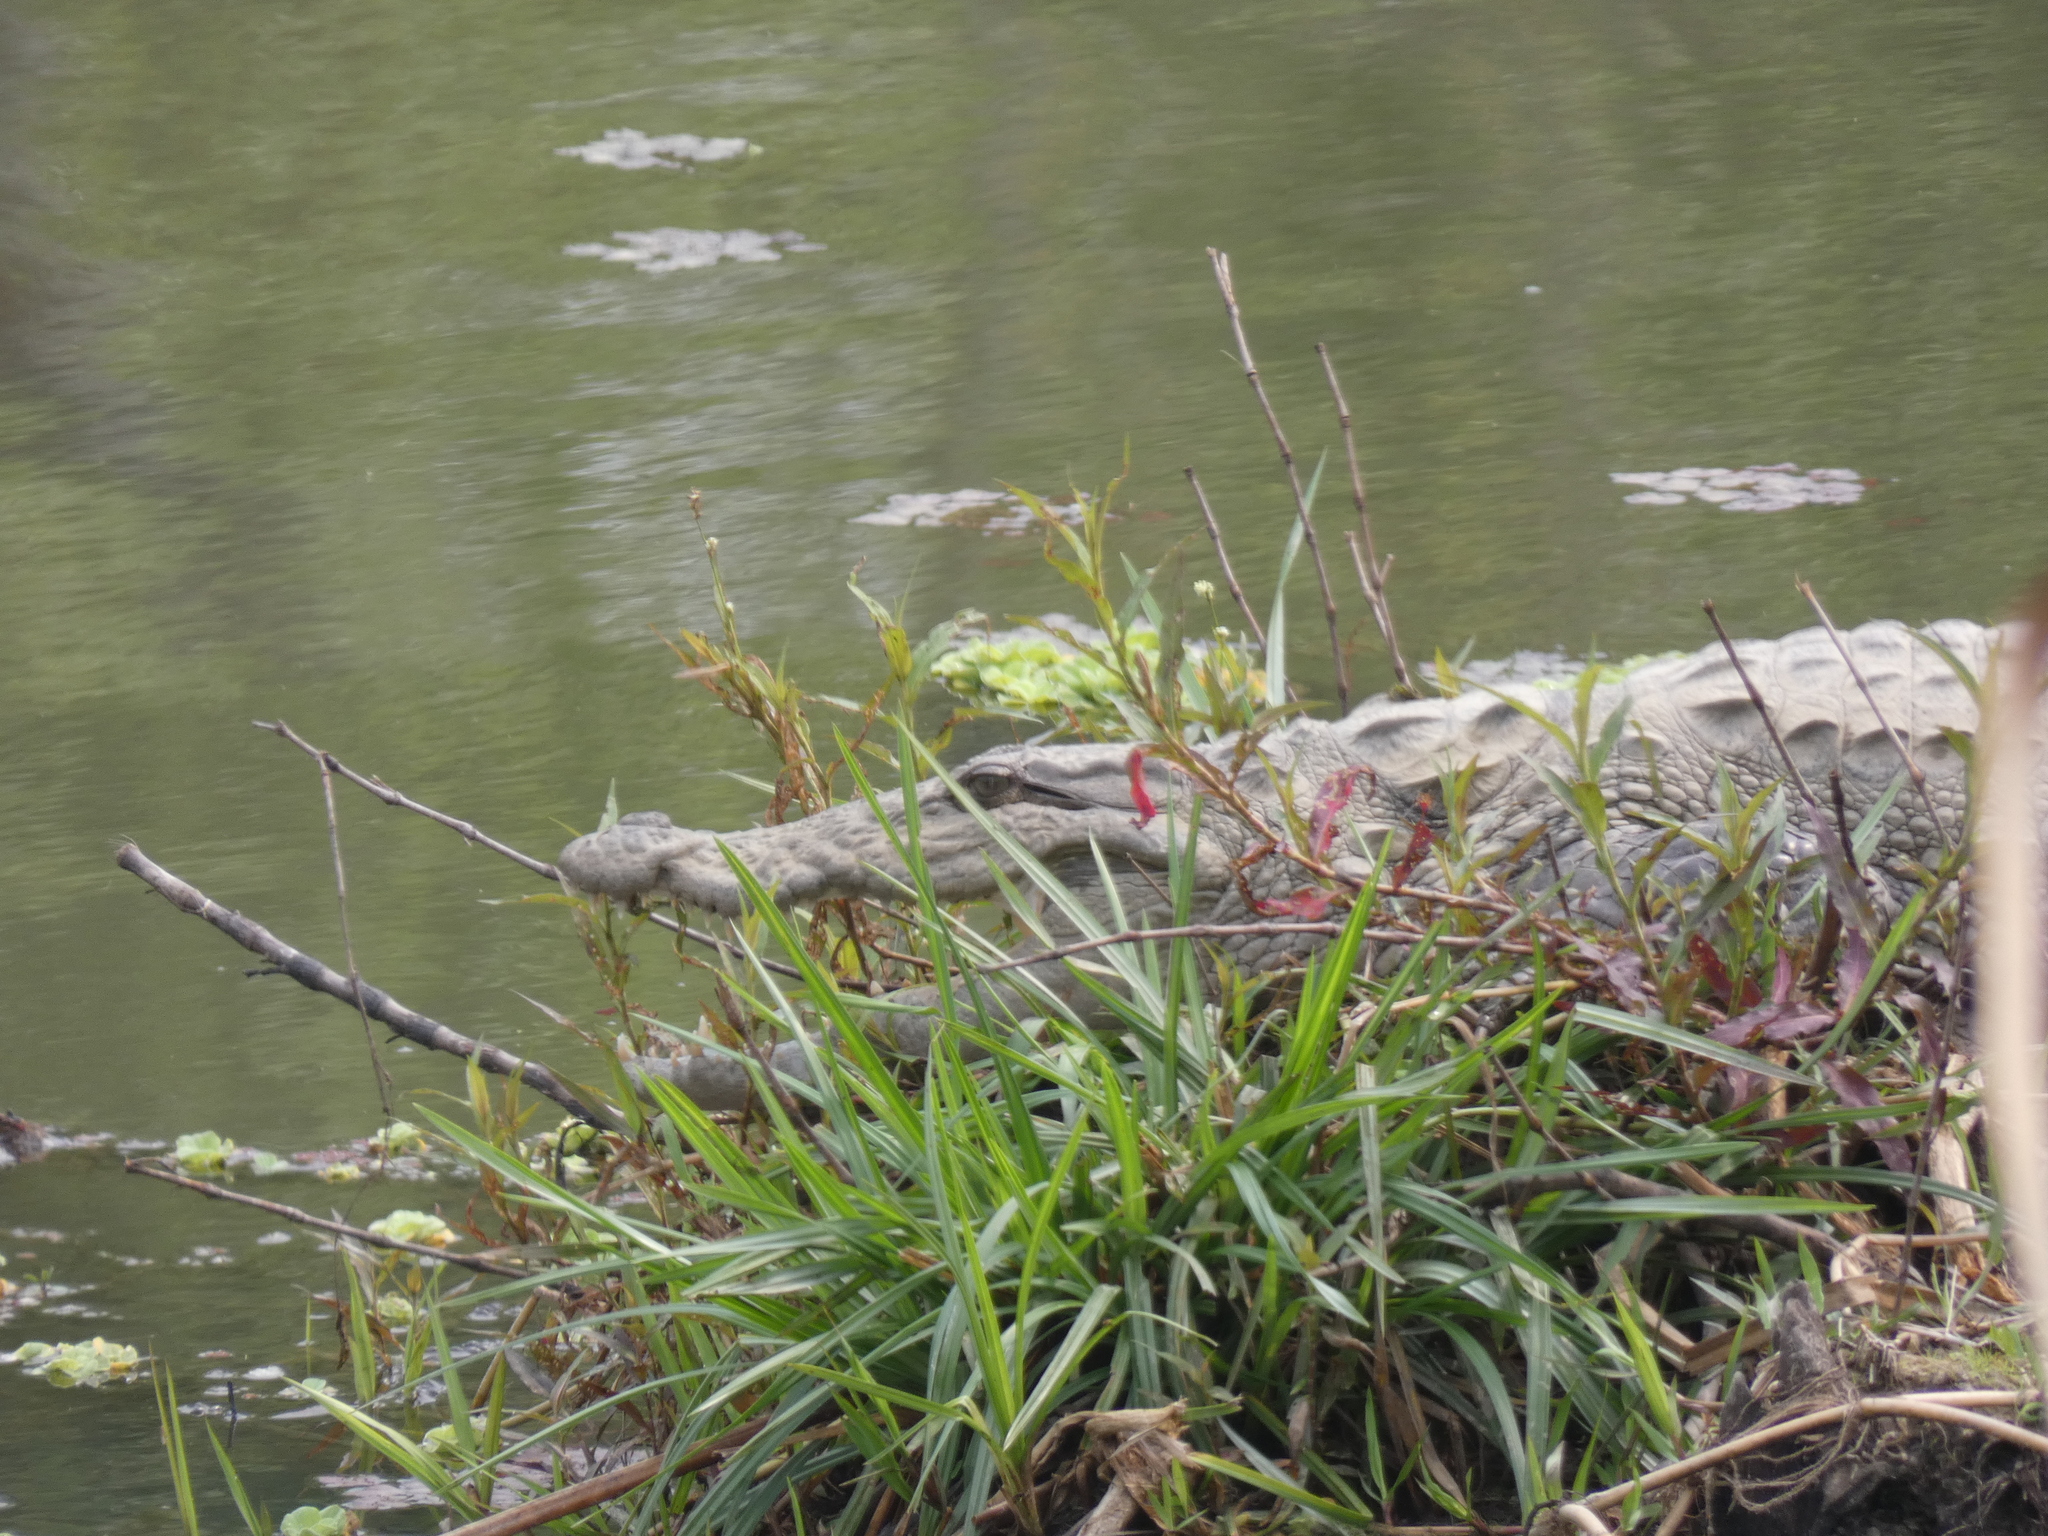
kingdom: Animalia
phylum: Chordata
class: Crocodylia
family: Crocodylidae
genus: Crocodylus
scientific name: Crocodylus palustris
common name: Mugger crocodile
